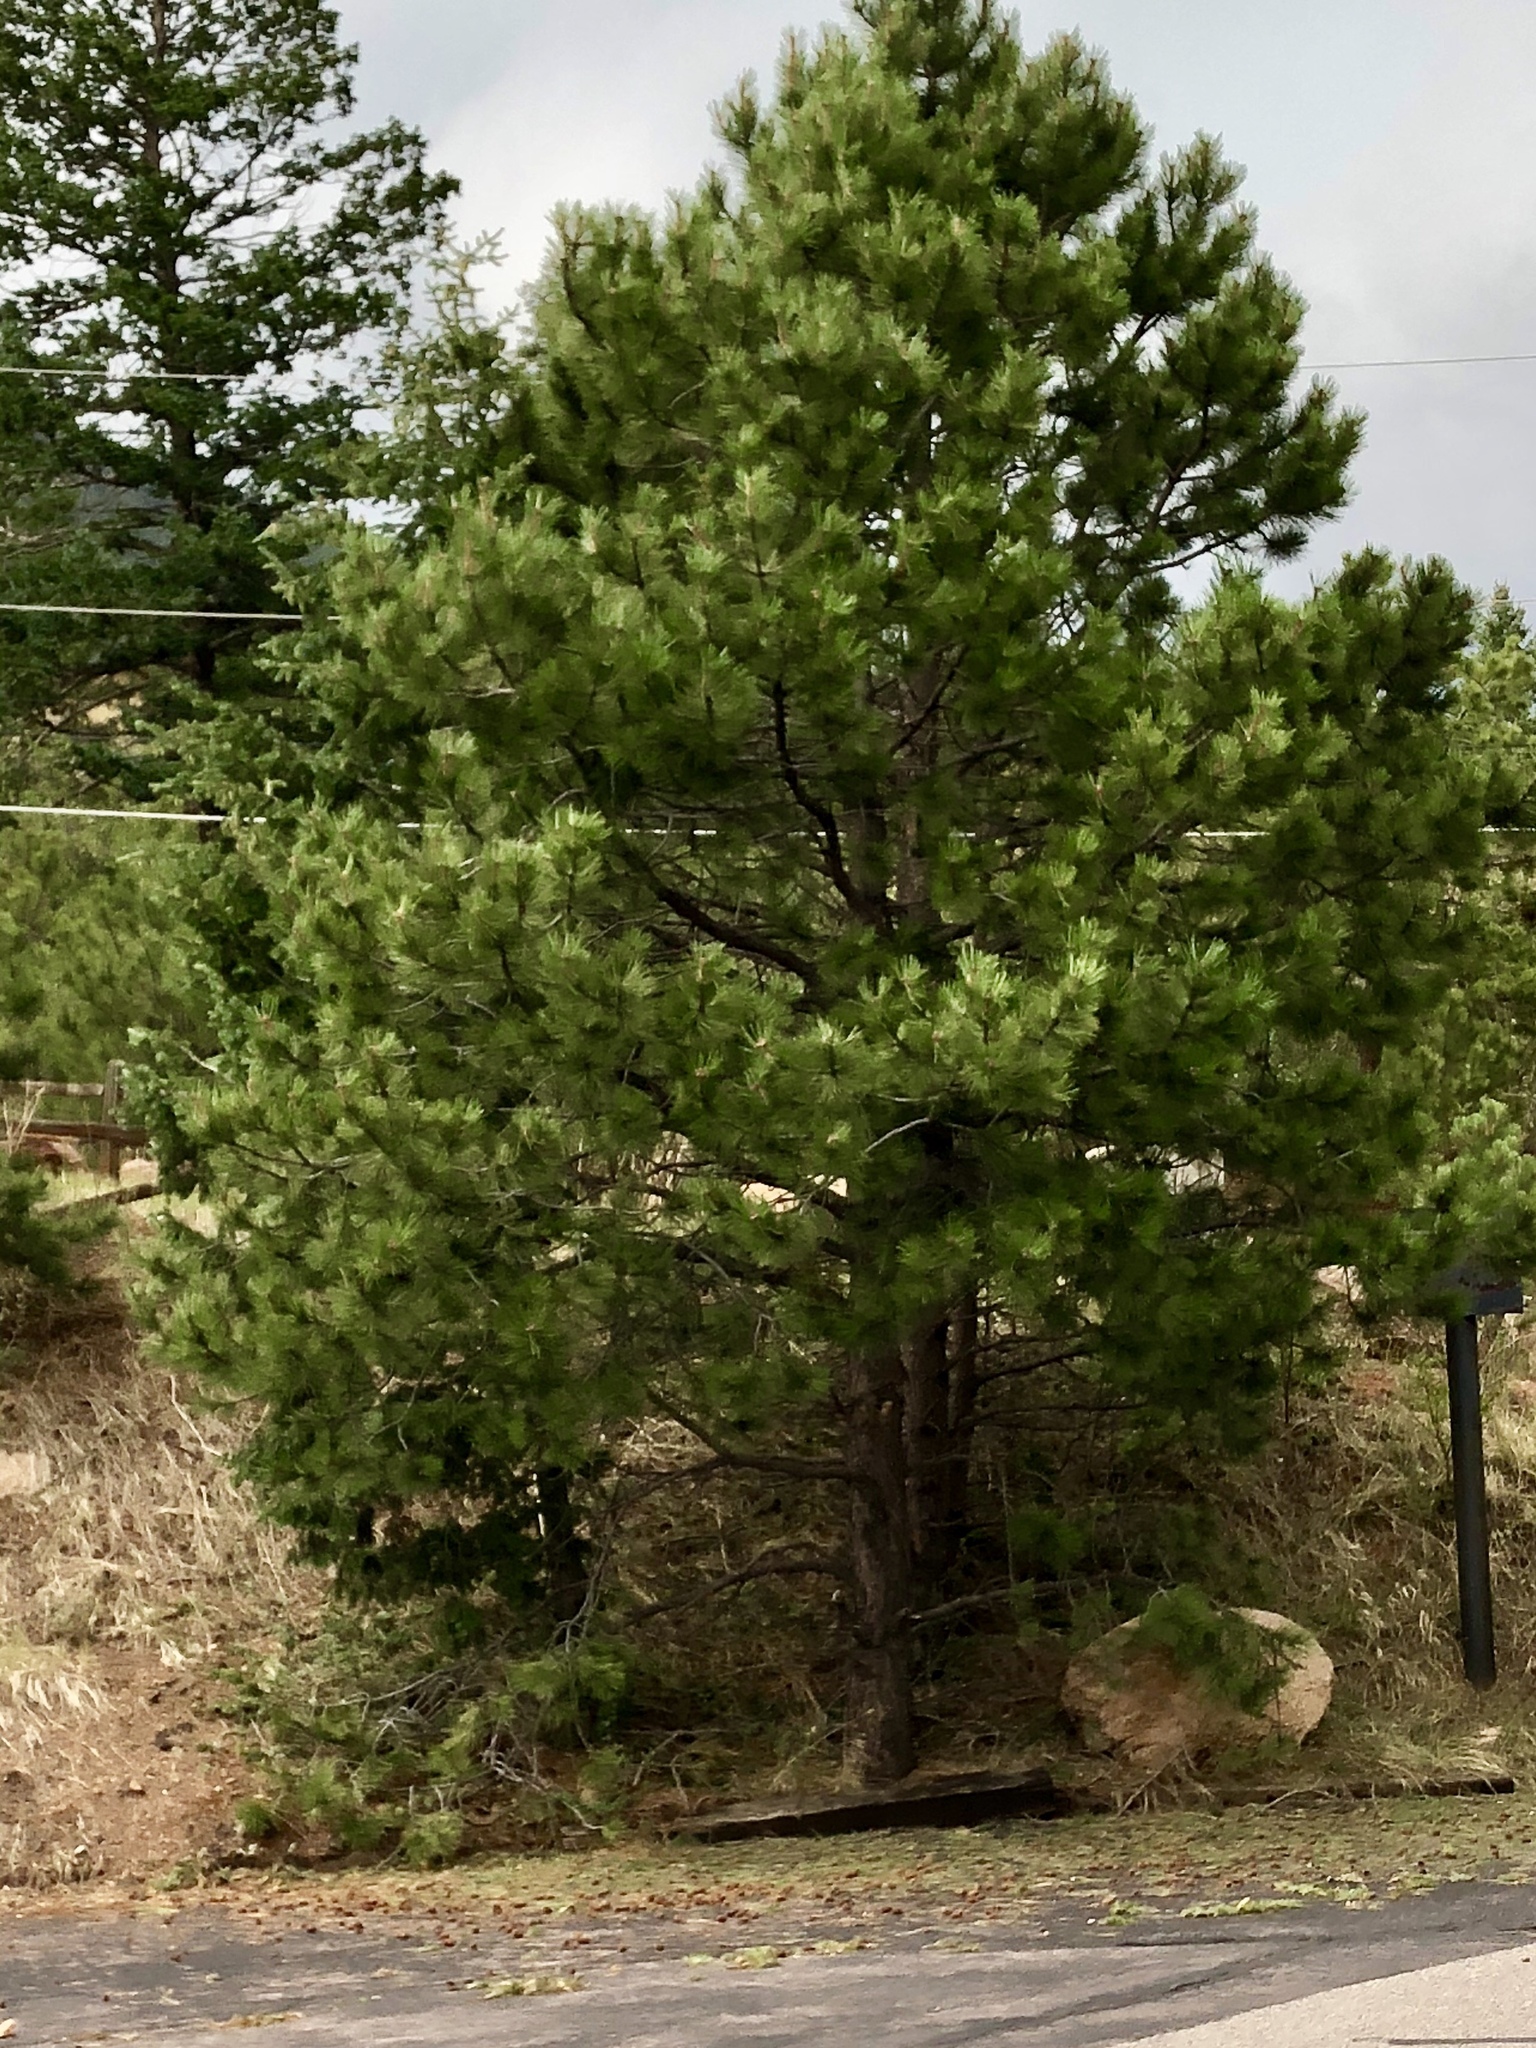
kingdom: Plantae
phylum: Tracheophyta
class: Pinopsida
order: Pinales
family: Pinaceae
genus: Pinus
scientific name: Pinus ponderosa
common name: Western yellow-pine
